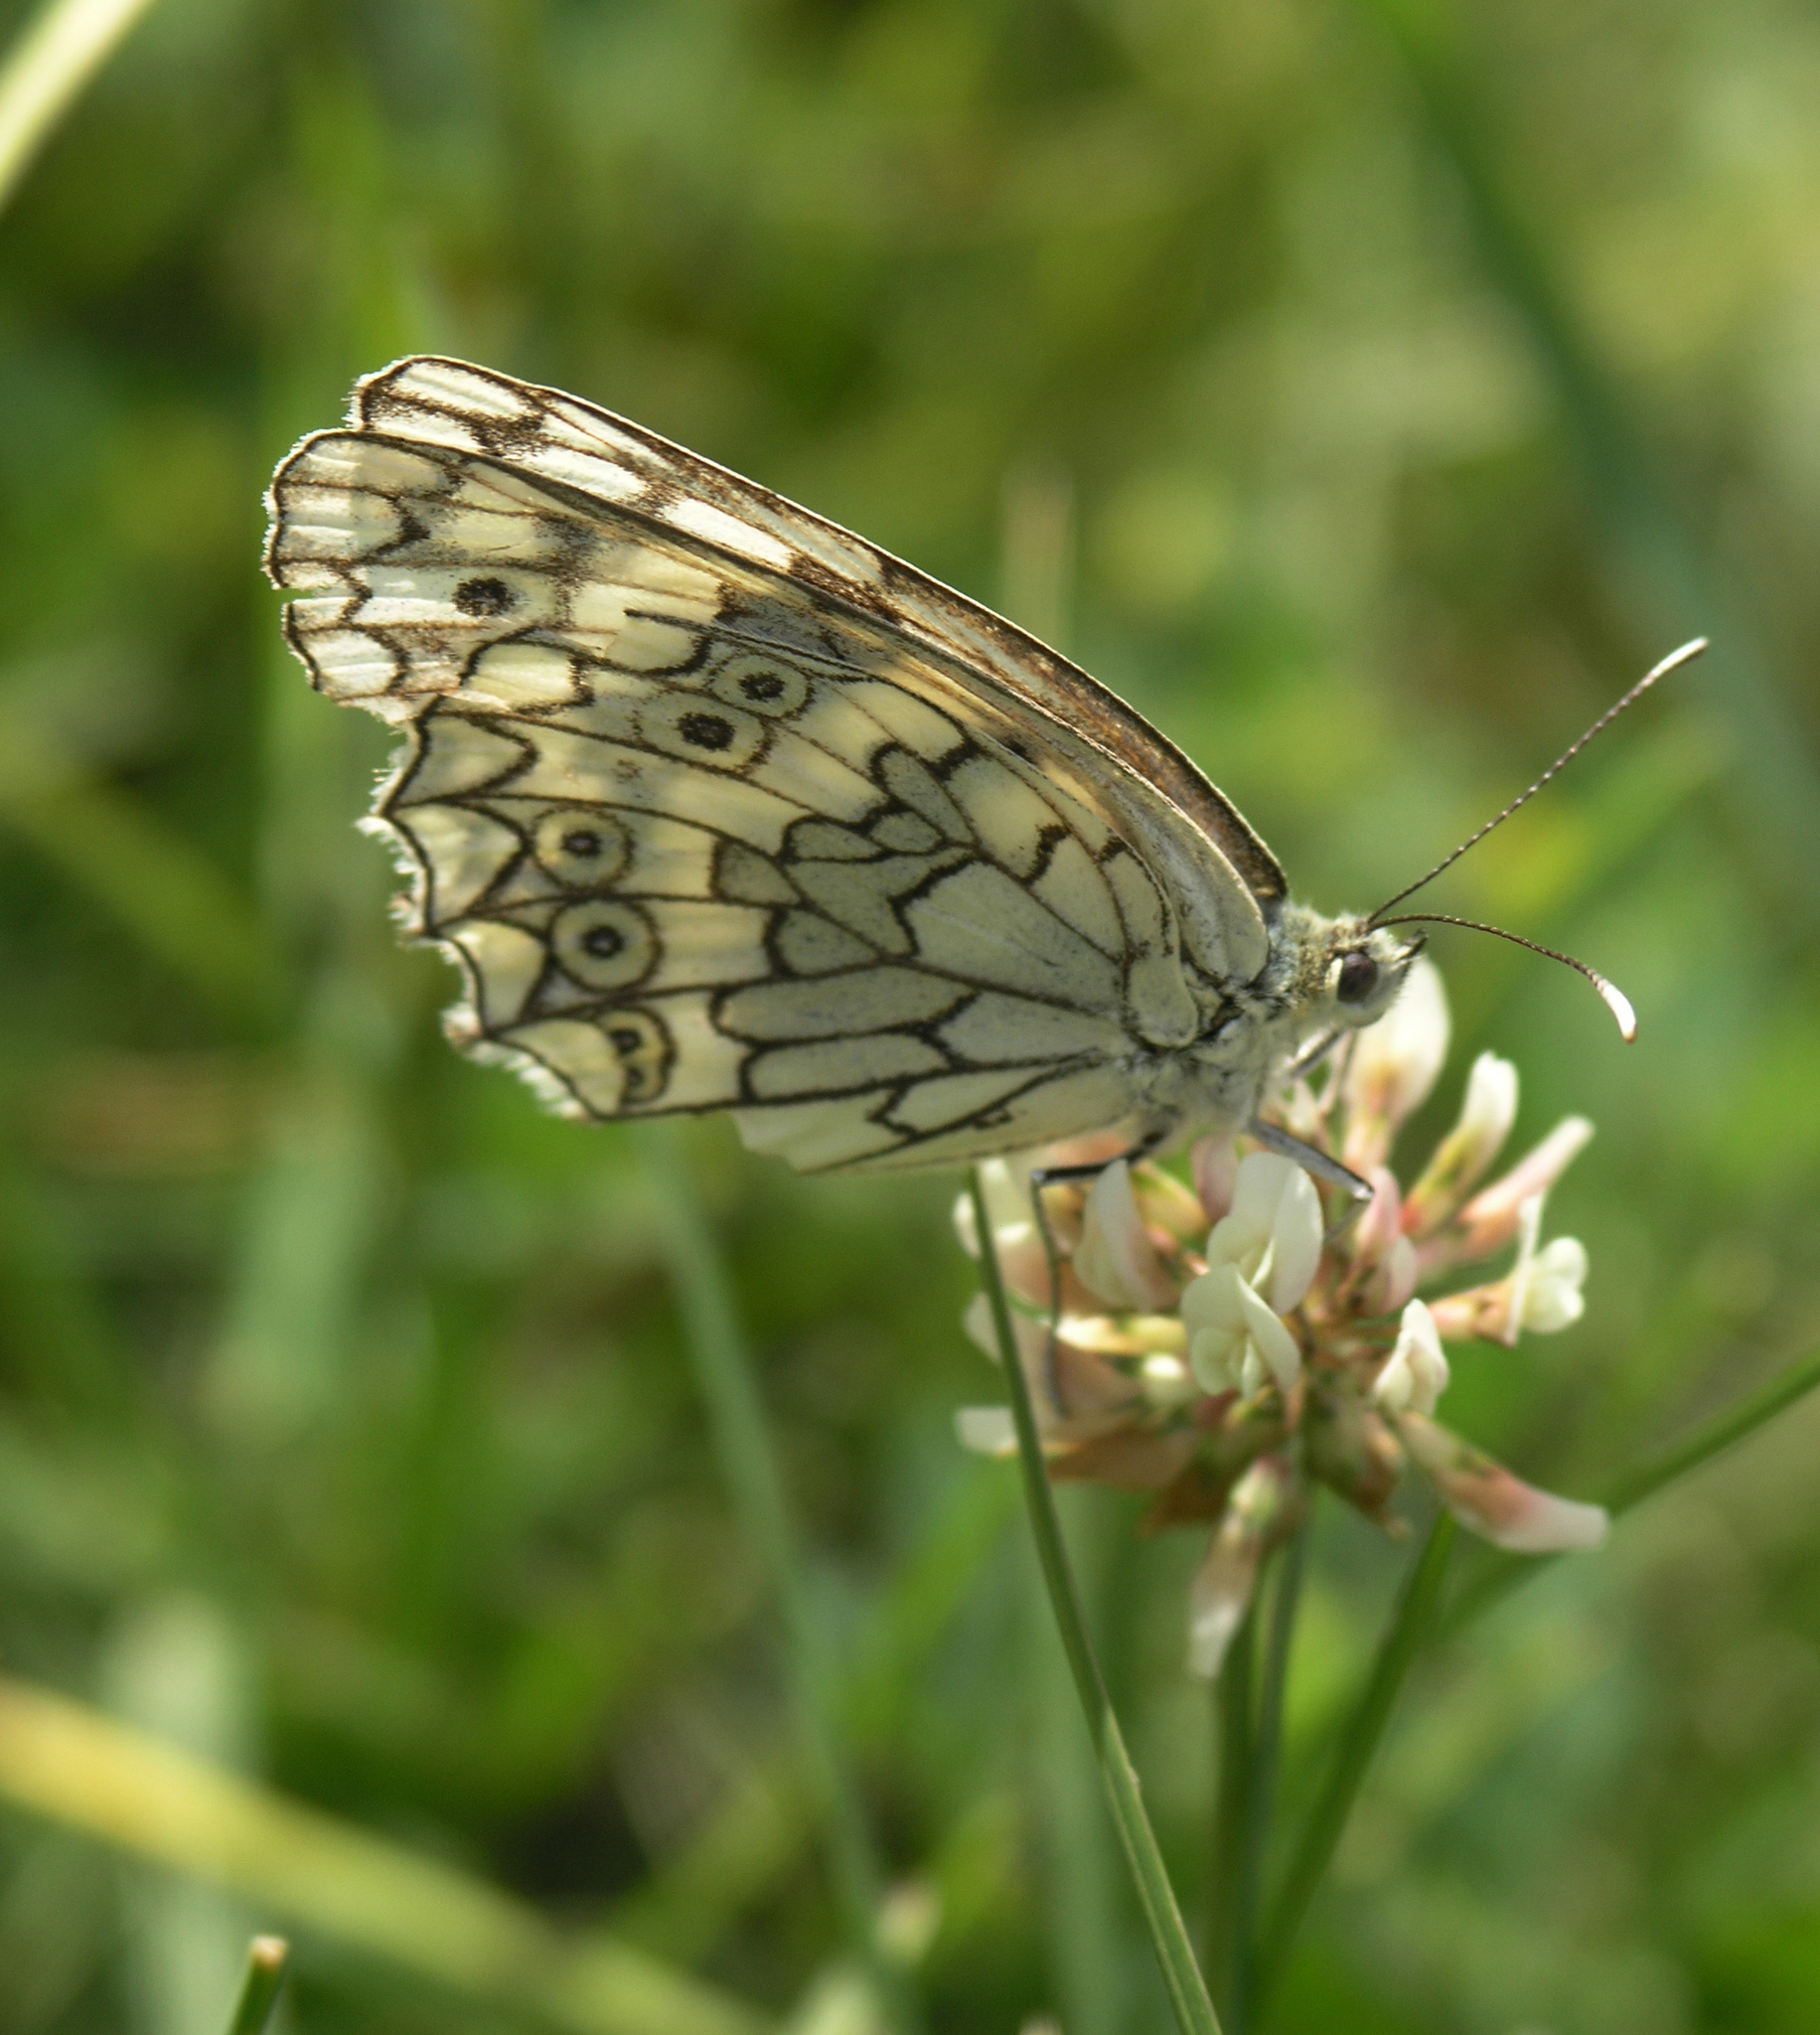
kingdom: Animalia
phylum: Arthropoda
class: Insecta
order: Lepidoptera
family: Nymphalidae
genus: Melanargia
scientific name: Melanargia japygia
